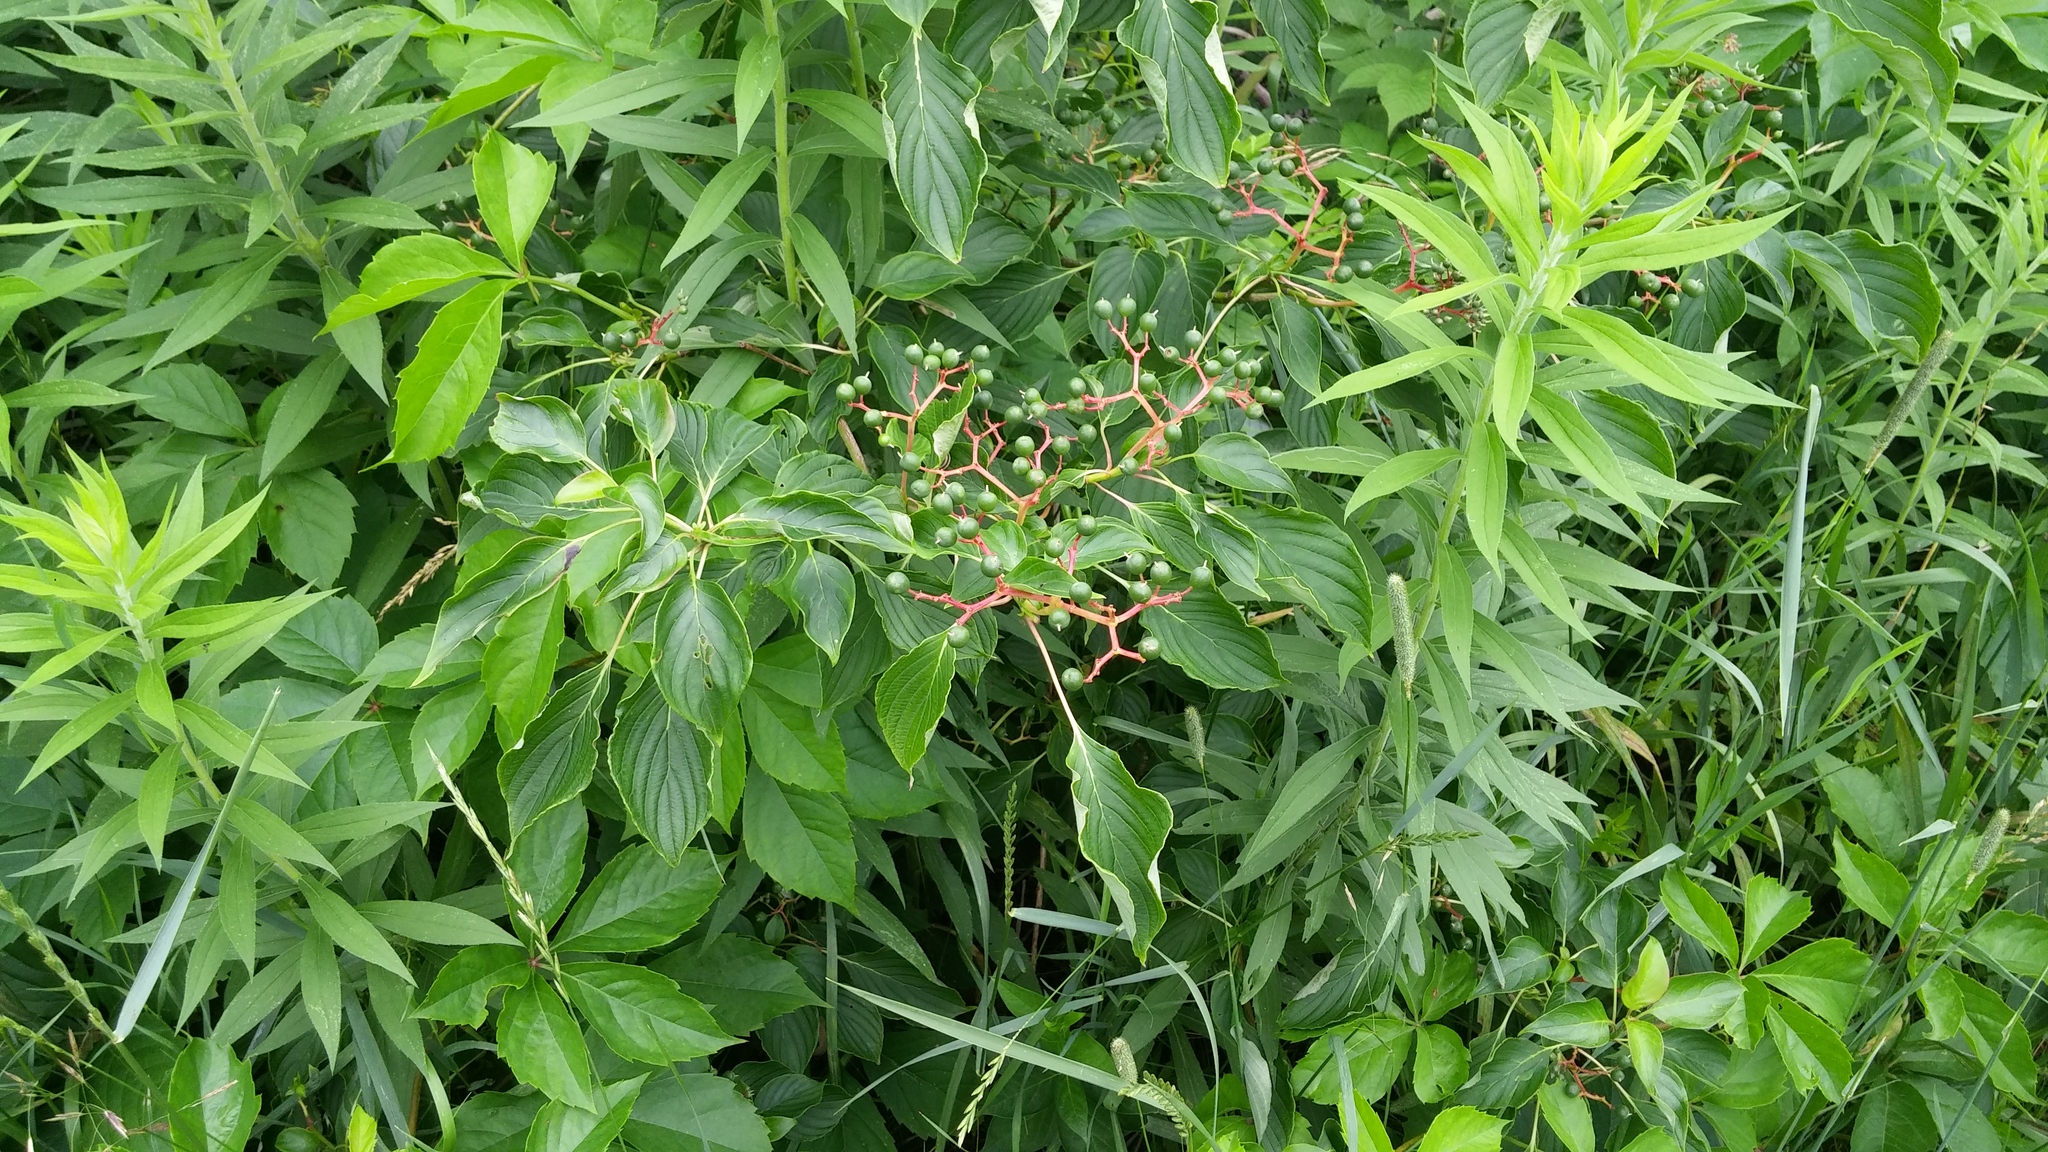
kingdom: Plantae
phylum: Tracheophyta
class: Magnoliopsida
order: Cornales
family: Cornaceae
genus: Cornus
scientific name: Cornus alternifolia
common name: Pagoda dogwood
